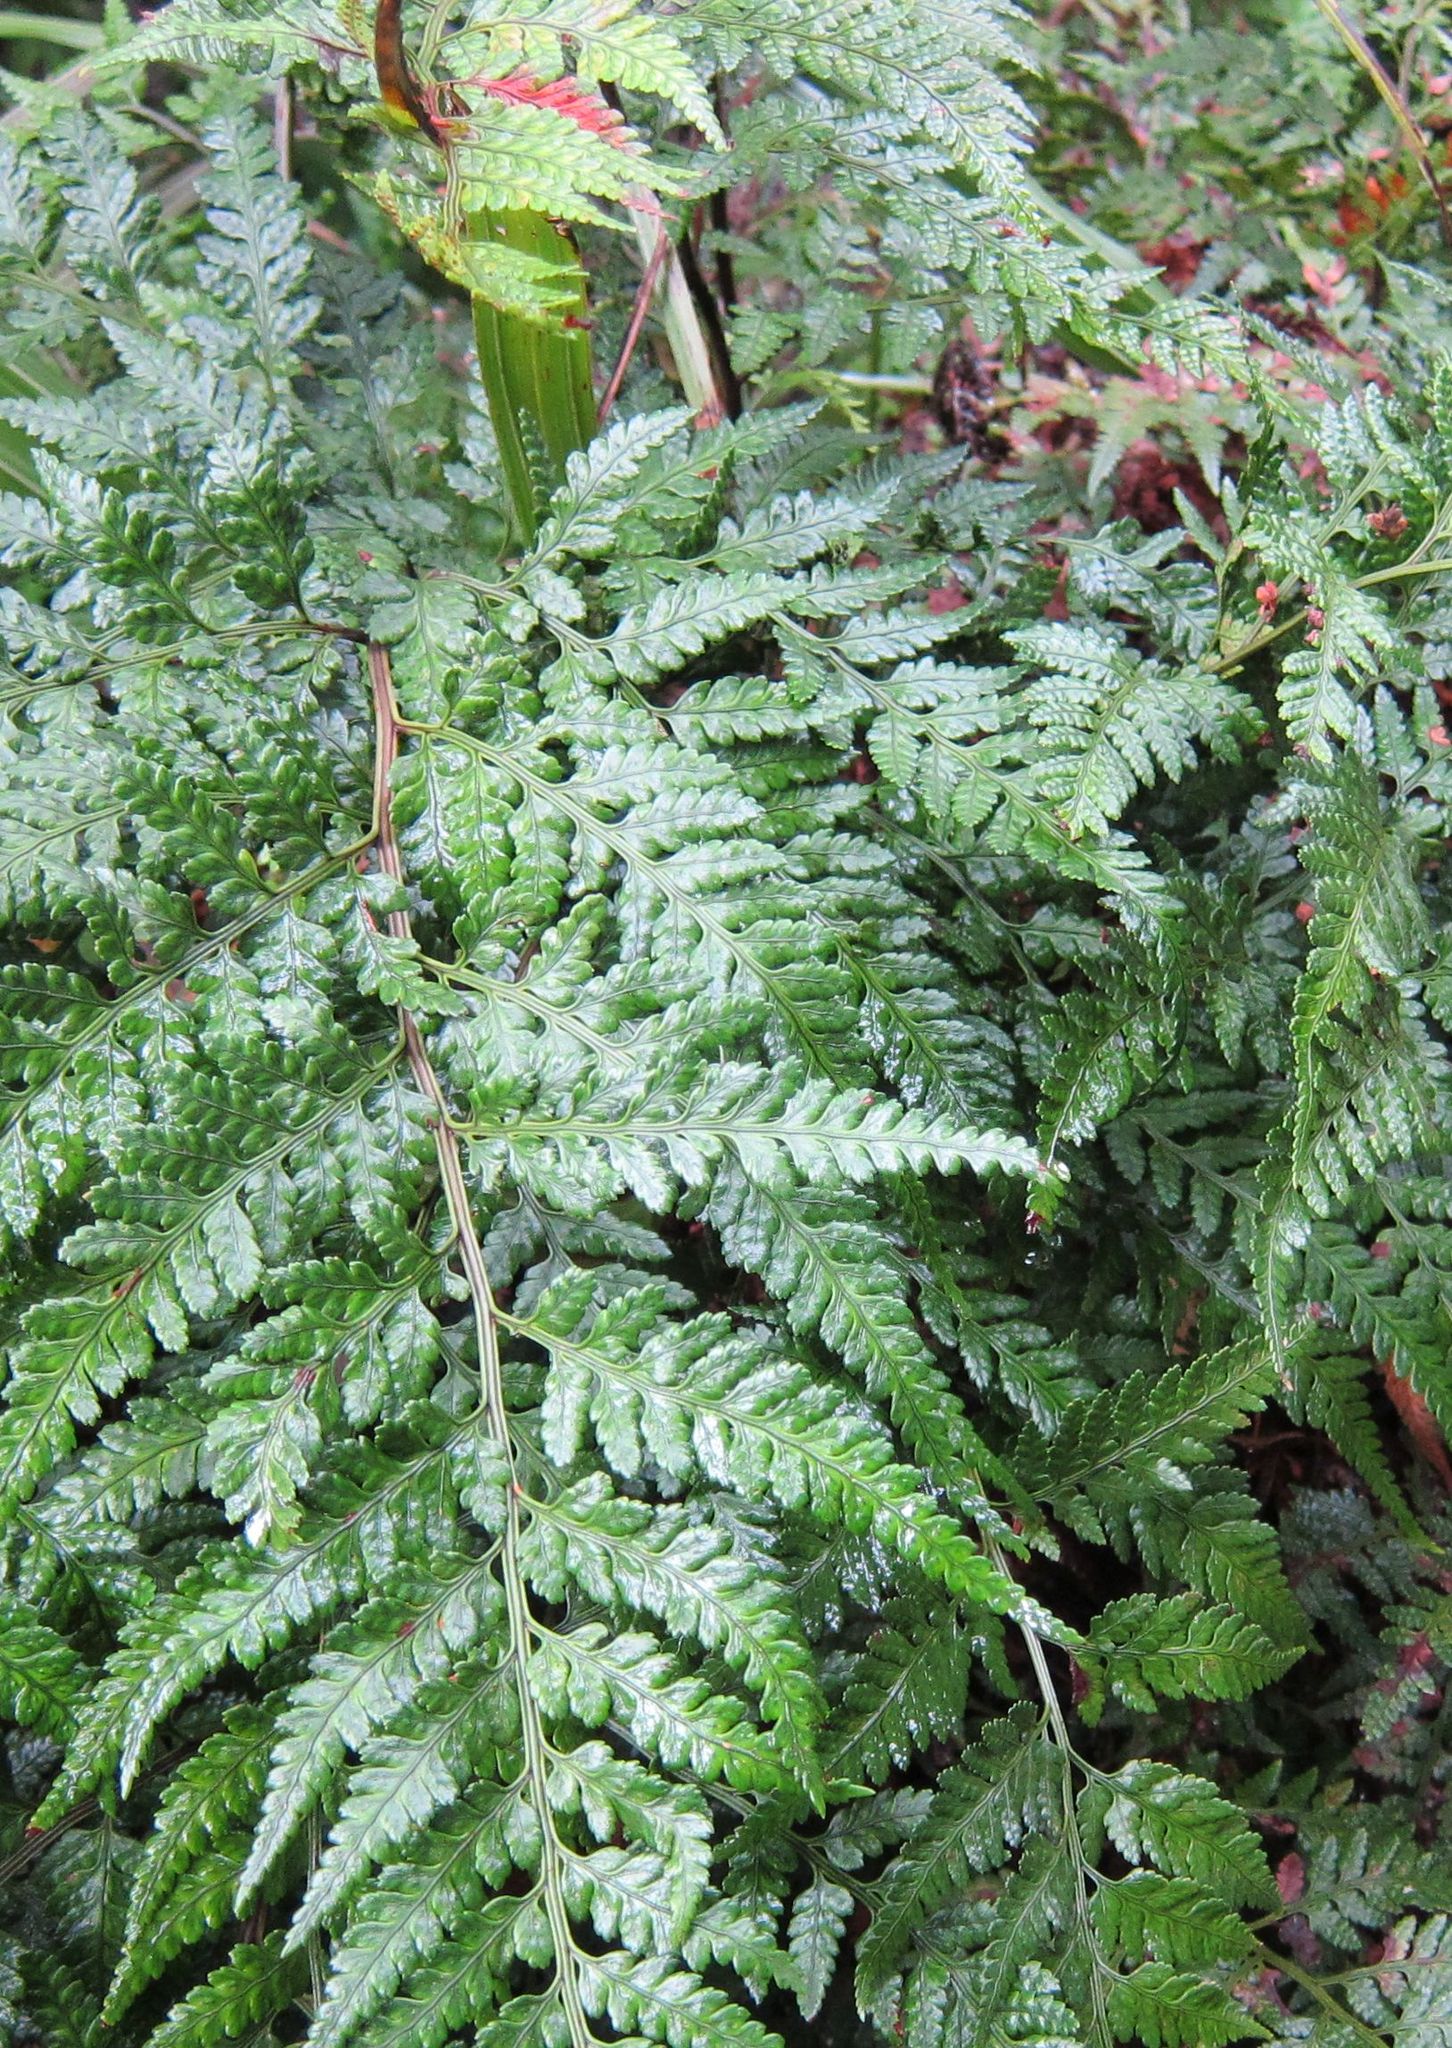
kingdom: Plantae
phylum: Tracheophyta
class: Polypodiopsida
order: Polypodiales
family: Dryopteridaceae
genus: Rumohra
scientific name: Rumohra adiantiformis
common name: Leather fern
